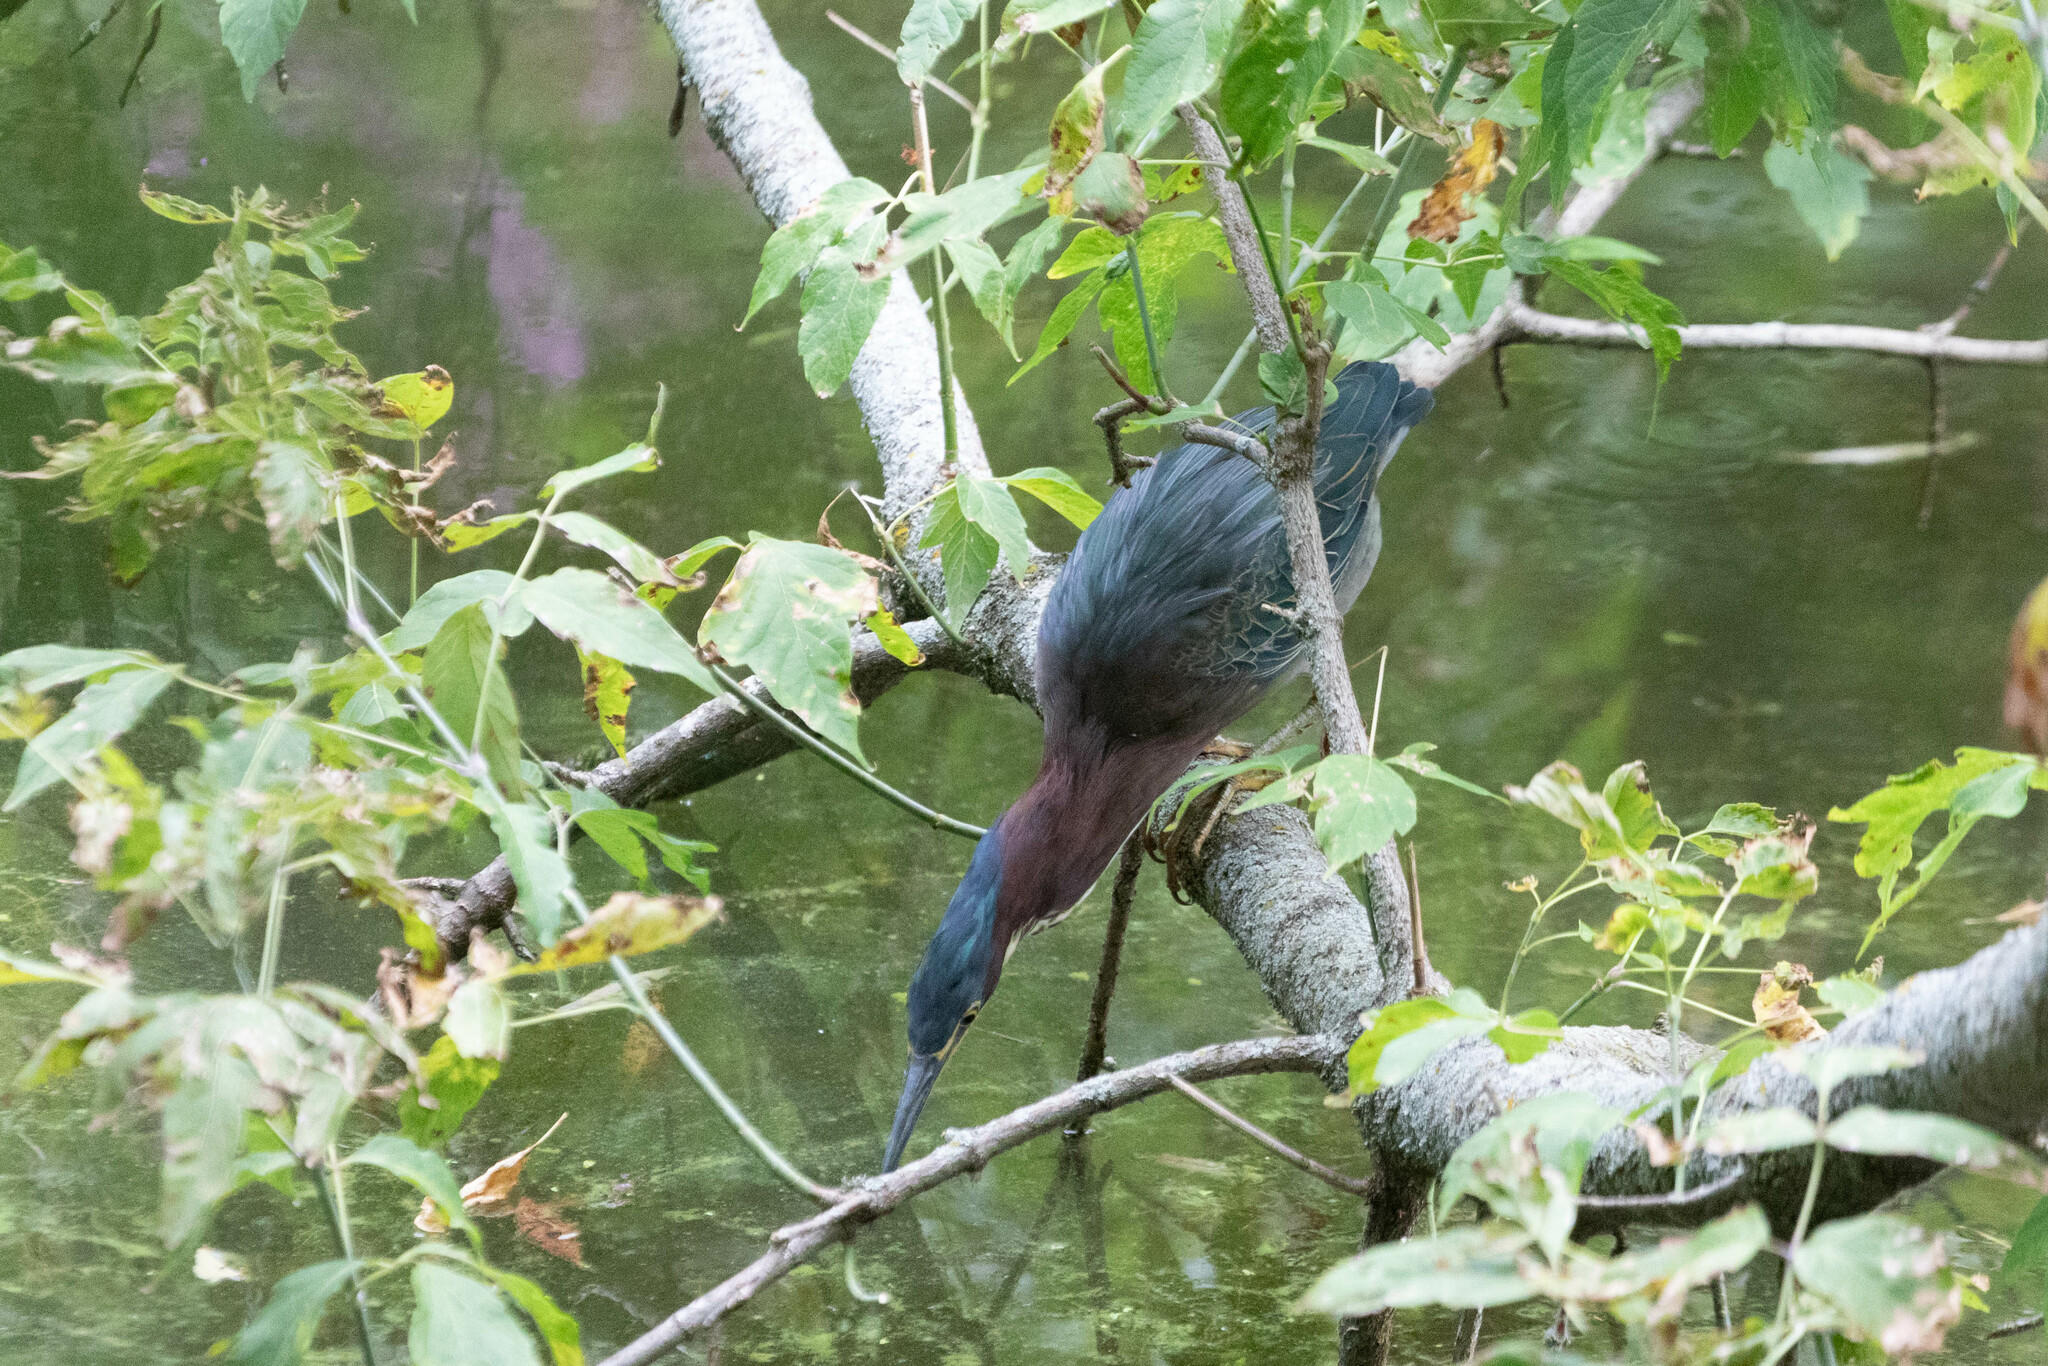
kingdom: Animalia
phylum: Chordata
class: Aves
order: Pelecaniformes
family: Ardeidae
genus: Butorides
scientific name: Butorides virescens
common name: Green heron
